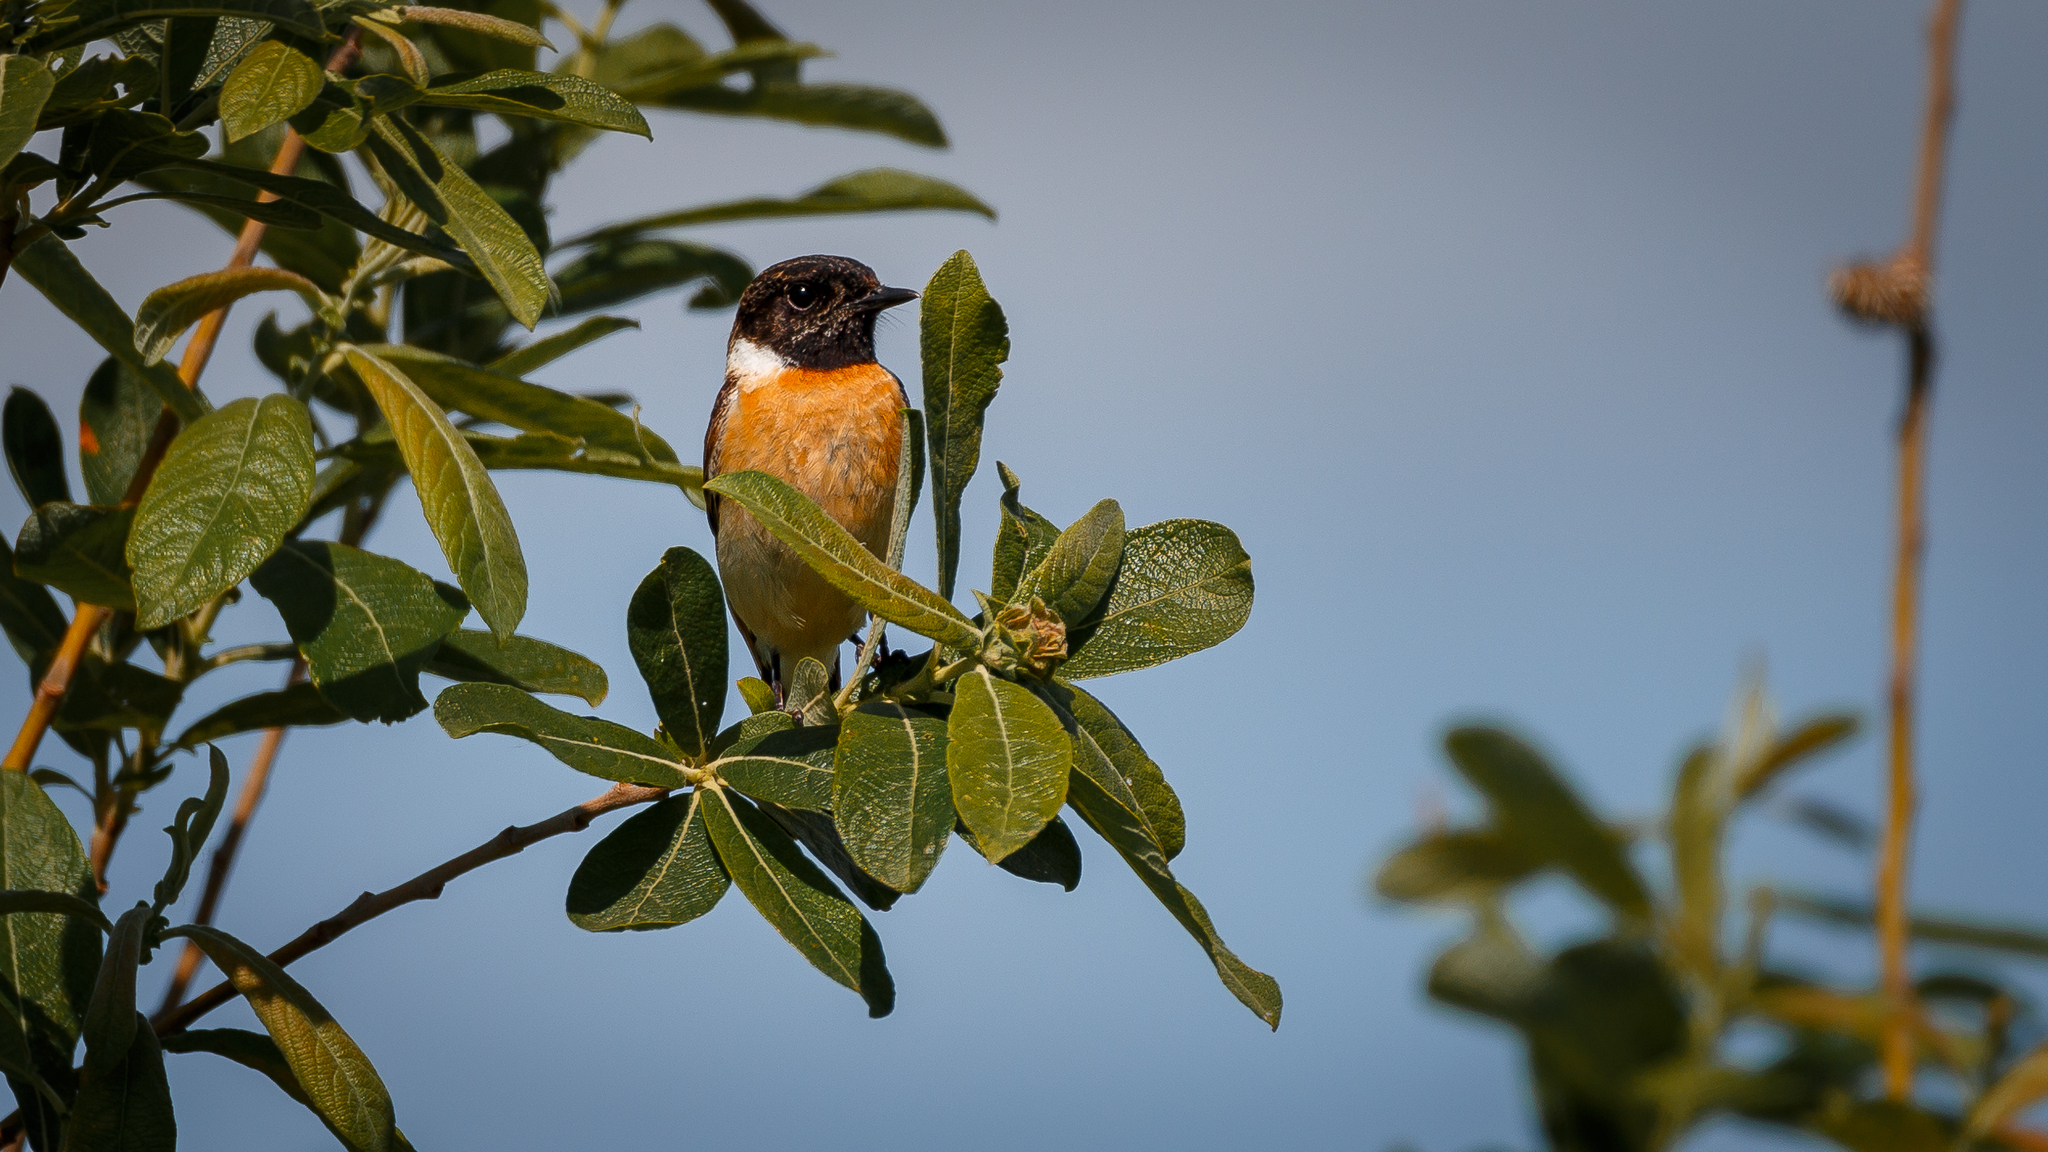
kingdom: Animalia
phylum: Chordata
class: Aves
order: Passeriformes
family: Muscicapidae
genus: Saxicola
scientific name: Saxicola maurus
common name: Siberian stonechat
